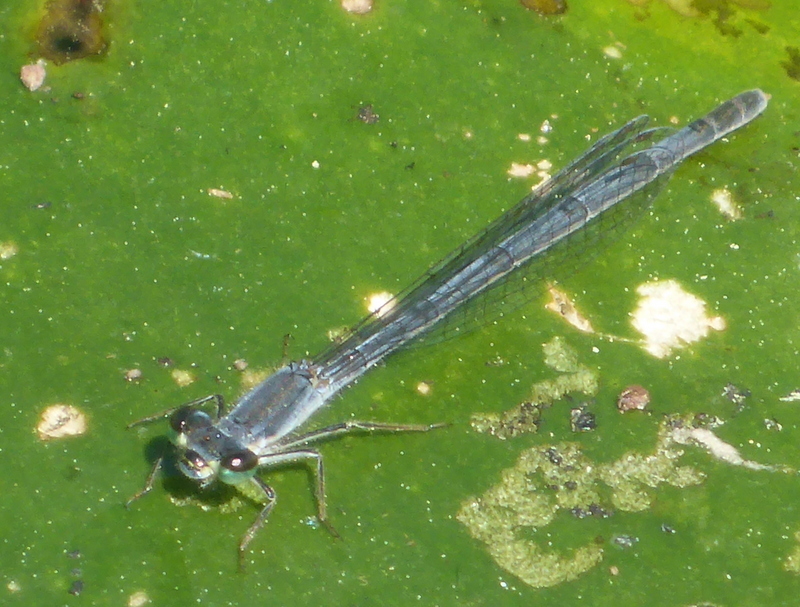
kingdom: Animalia
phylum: Arthropoda
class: Insecta
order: Odonata
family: Coenagrionidae
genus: Ischnura
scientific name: Ischnura posita
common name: Fragile forktail
